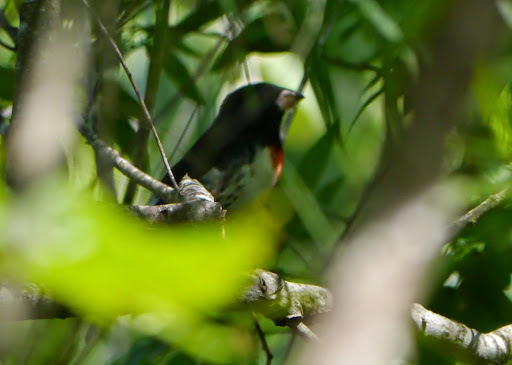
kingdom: Animalia
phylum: Chordata
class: Aves
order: Passeriformes
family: Cardinalidae
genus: Pheucticus
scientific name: Pheucticus ludovicianus
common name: Rose-breasted grosbeak
